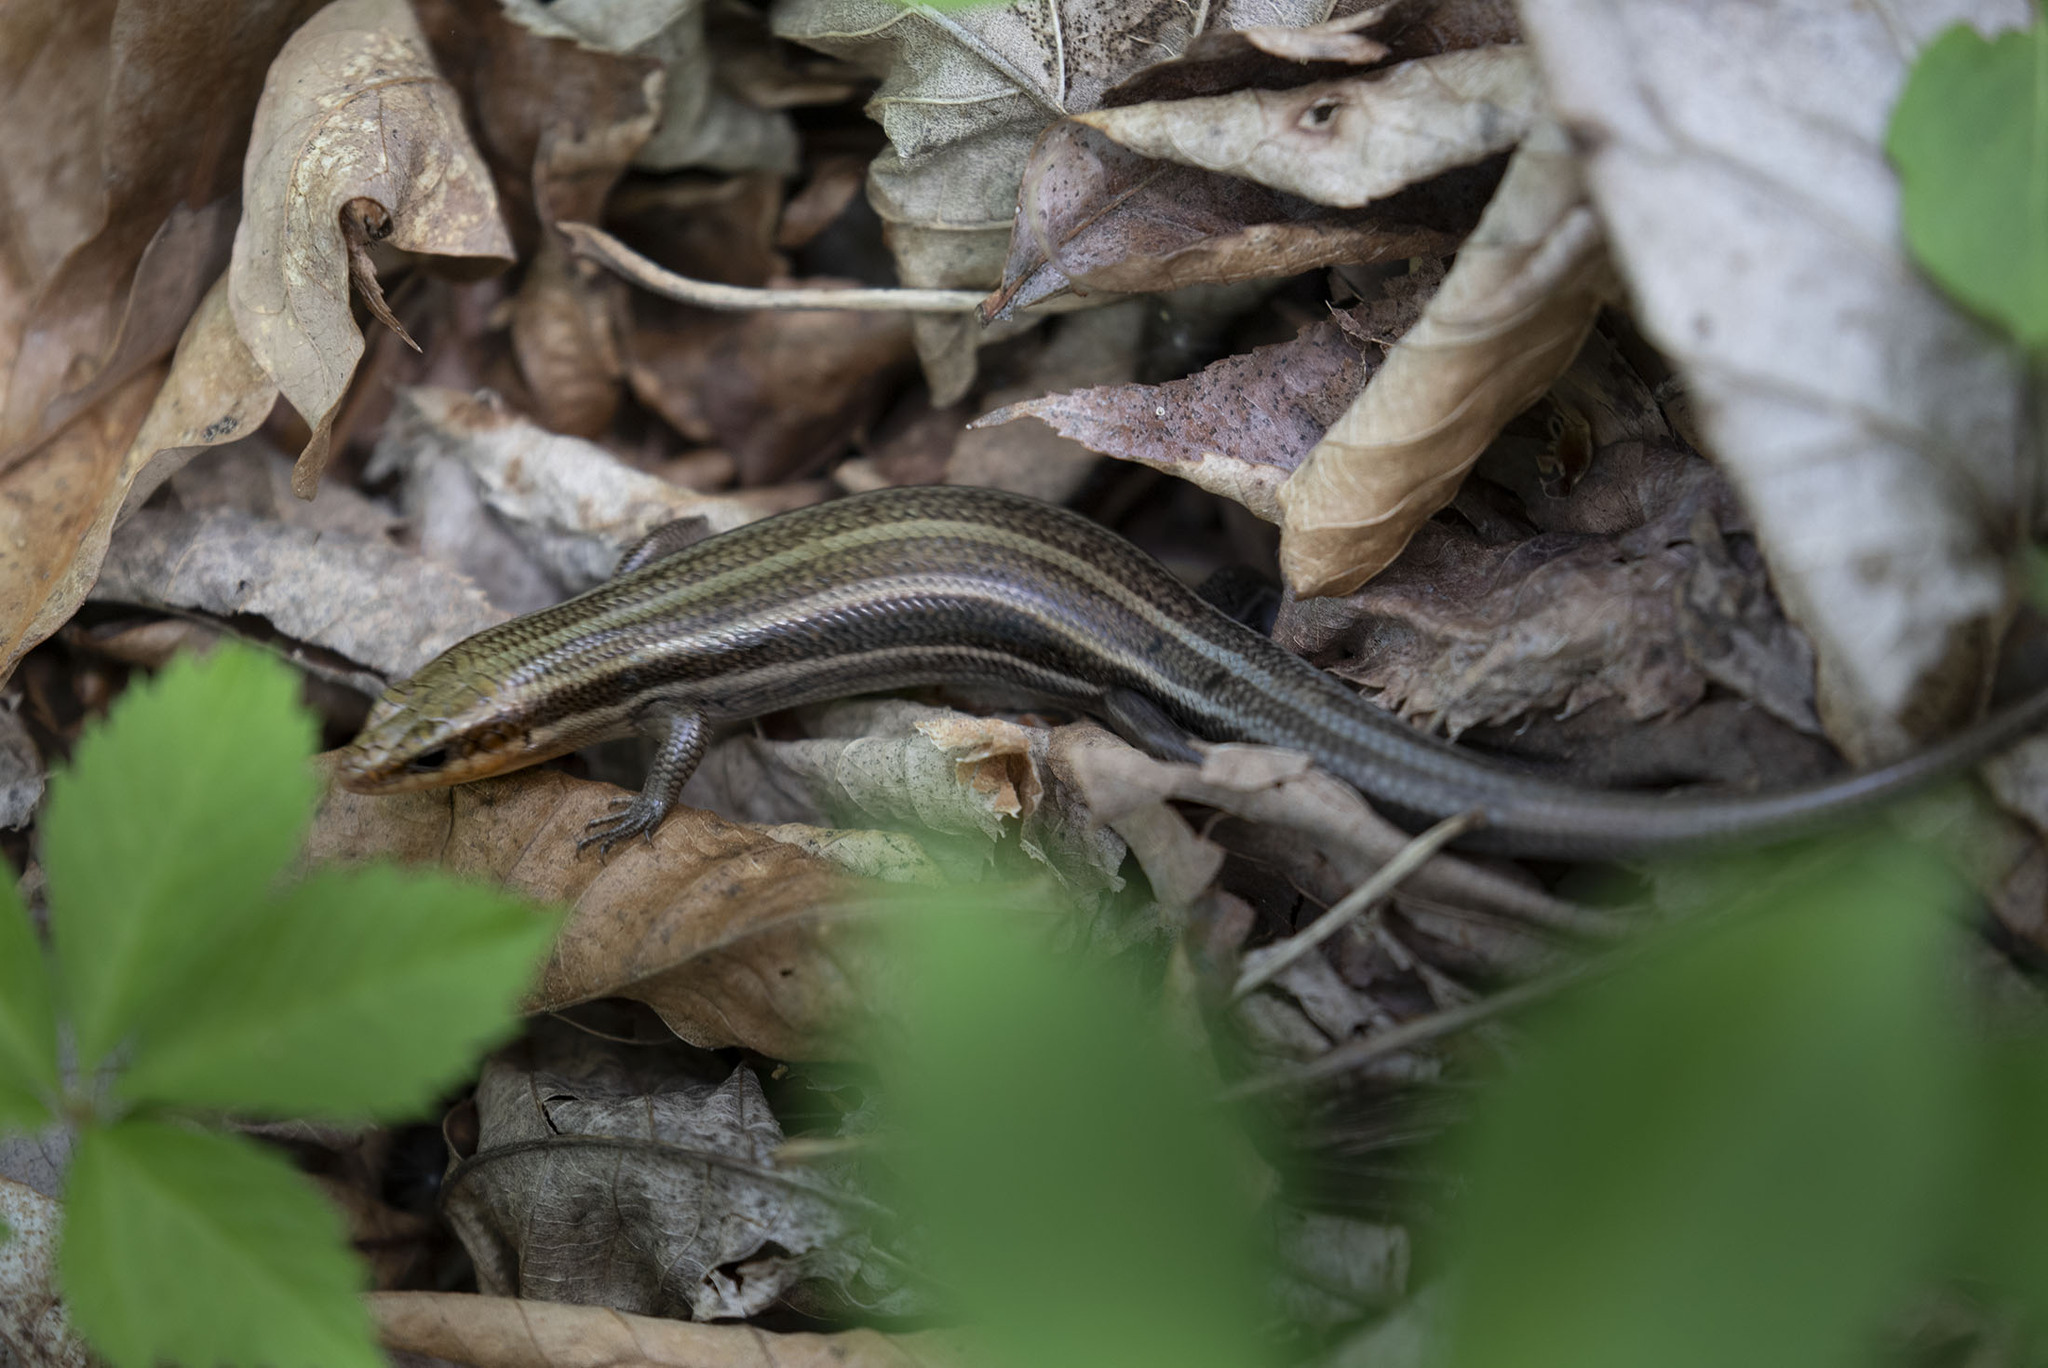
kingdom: Animalia
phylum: Chordata
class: Squamata
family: Scincidae
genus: Plestiodon
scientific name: Plestiodon fasciatus
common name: Five-lined skink
